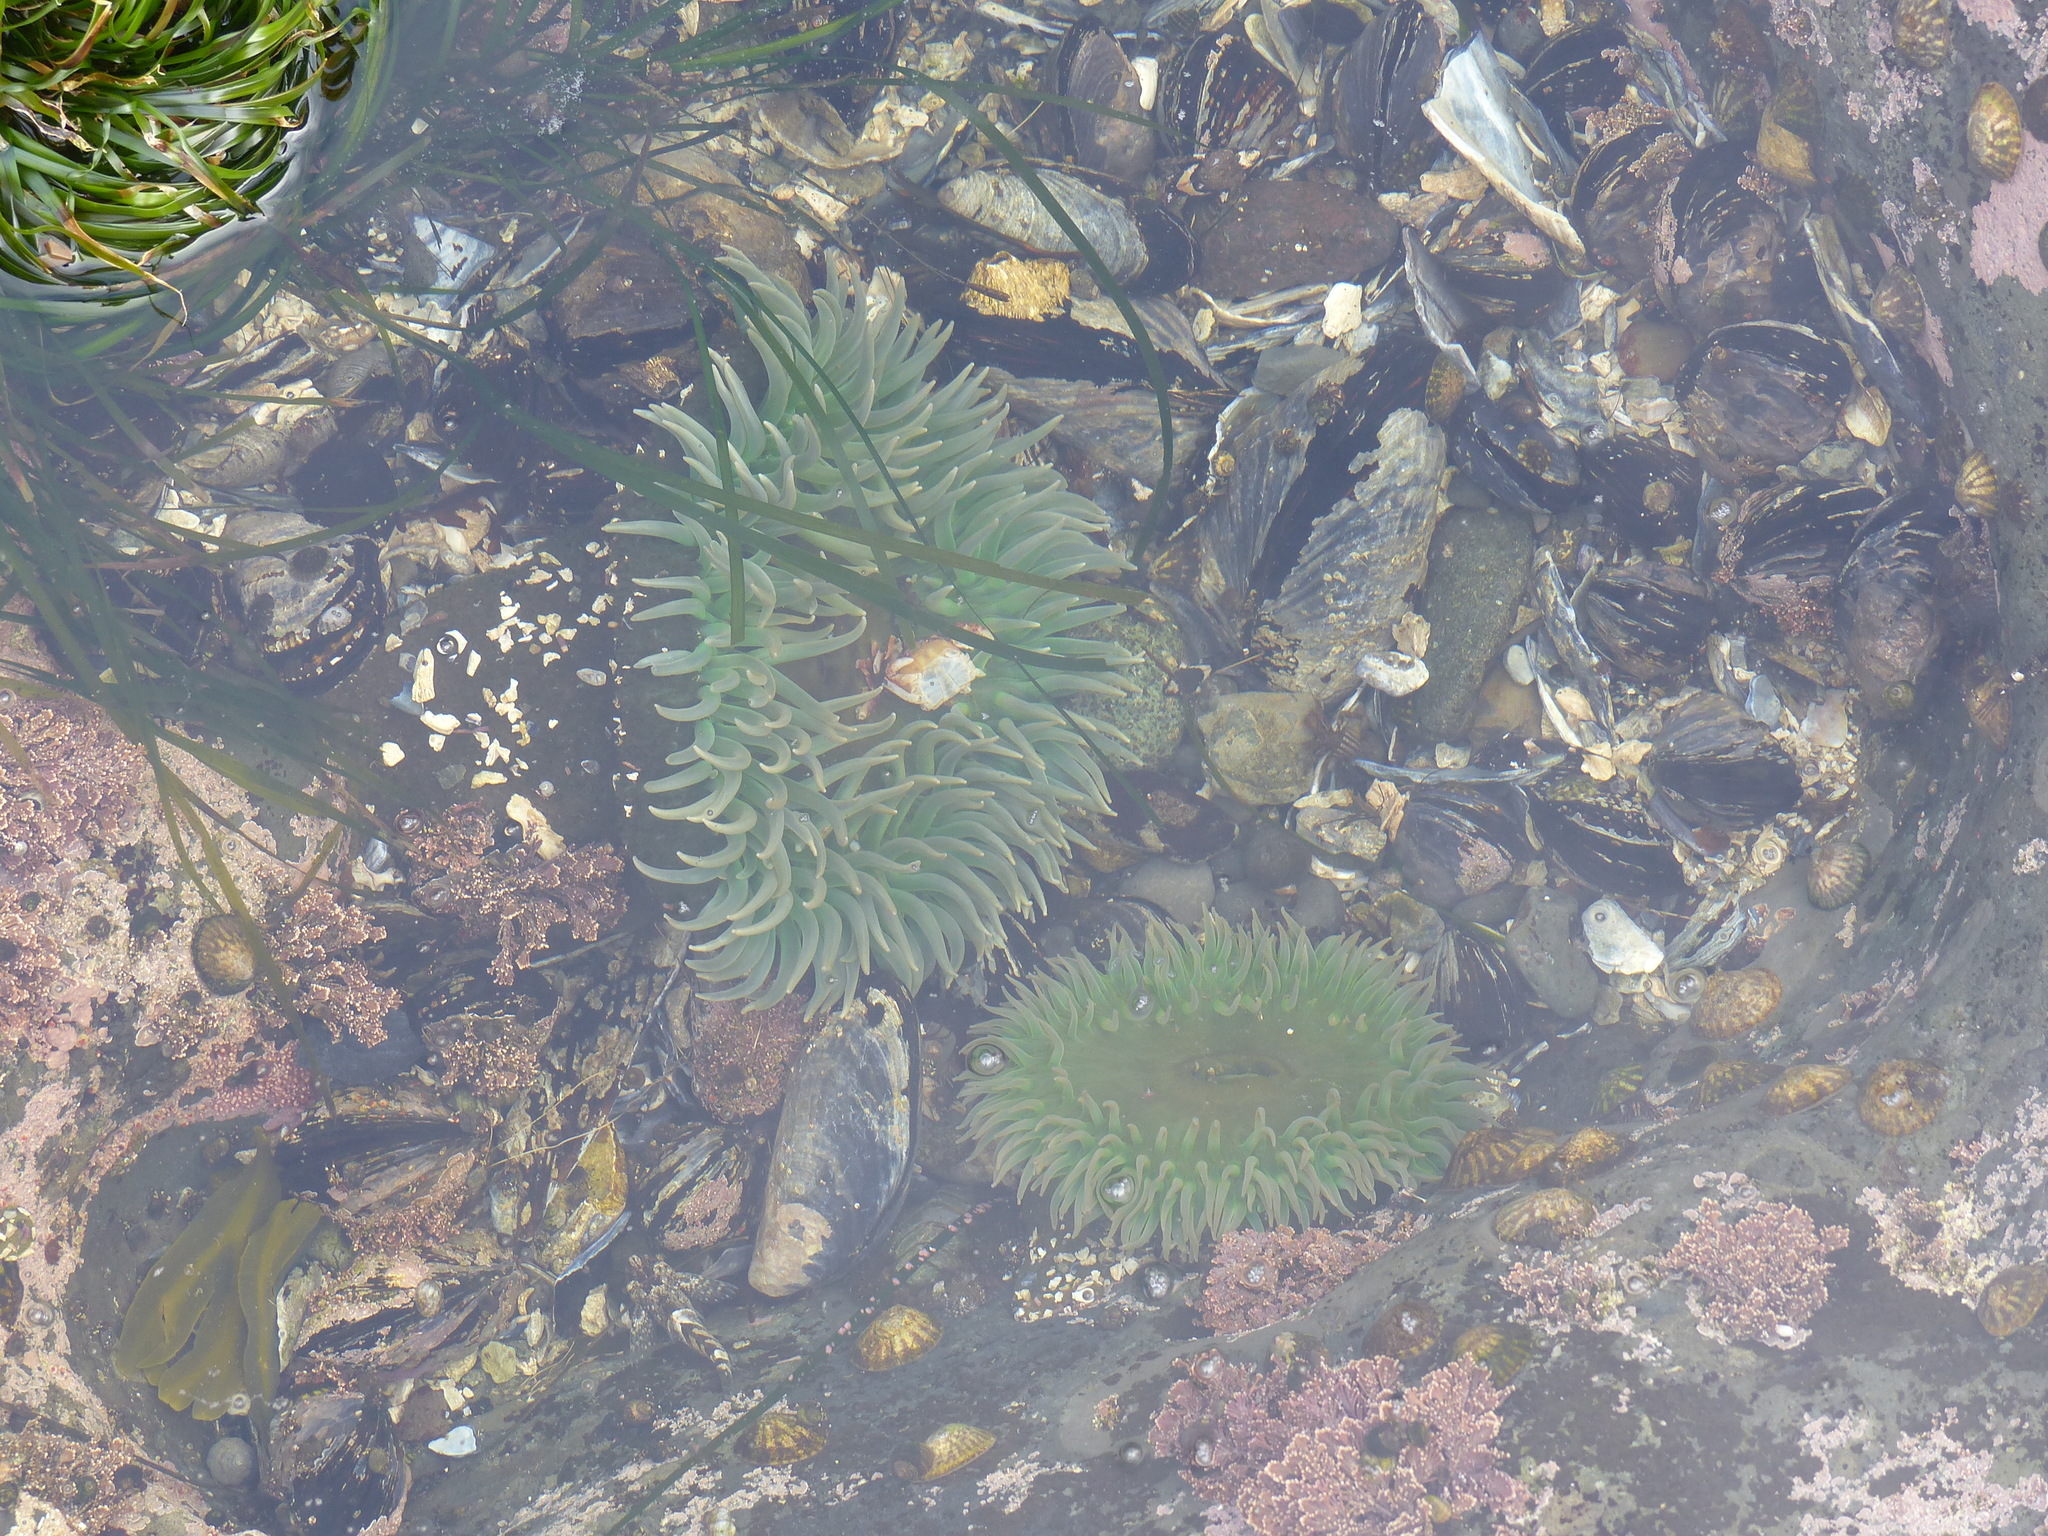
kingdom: Animalia
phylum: Cnidaria
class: Anthozoa
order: Actiniaria
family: Actiniidae
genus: Anthopleura
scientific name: Anthopleura xanthogrammica
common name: Giant green anemone
